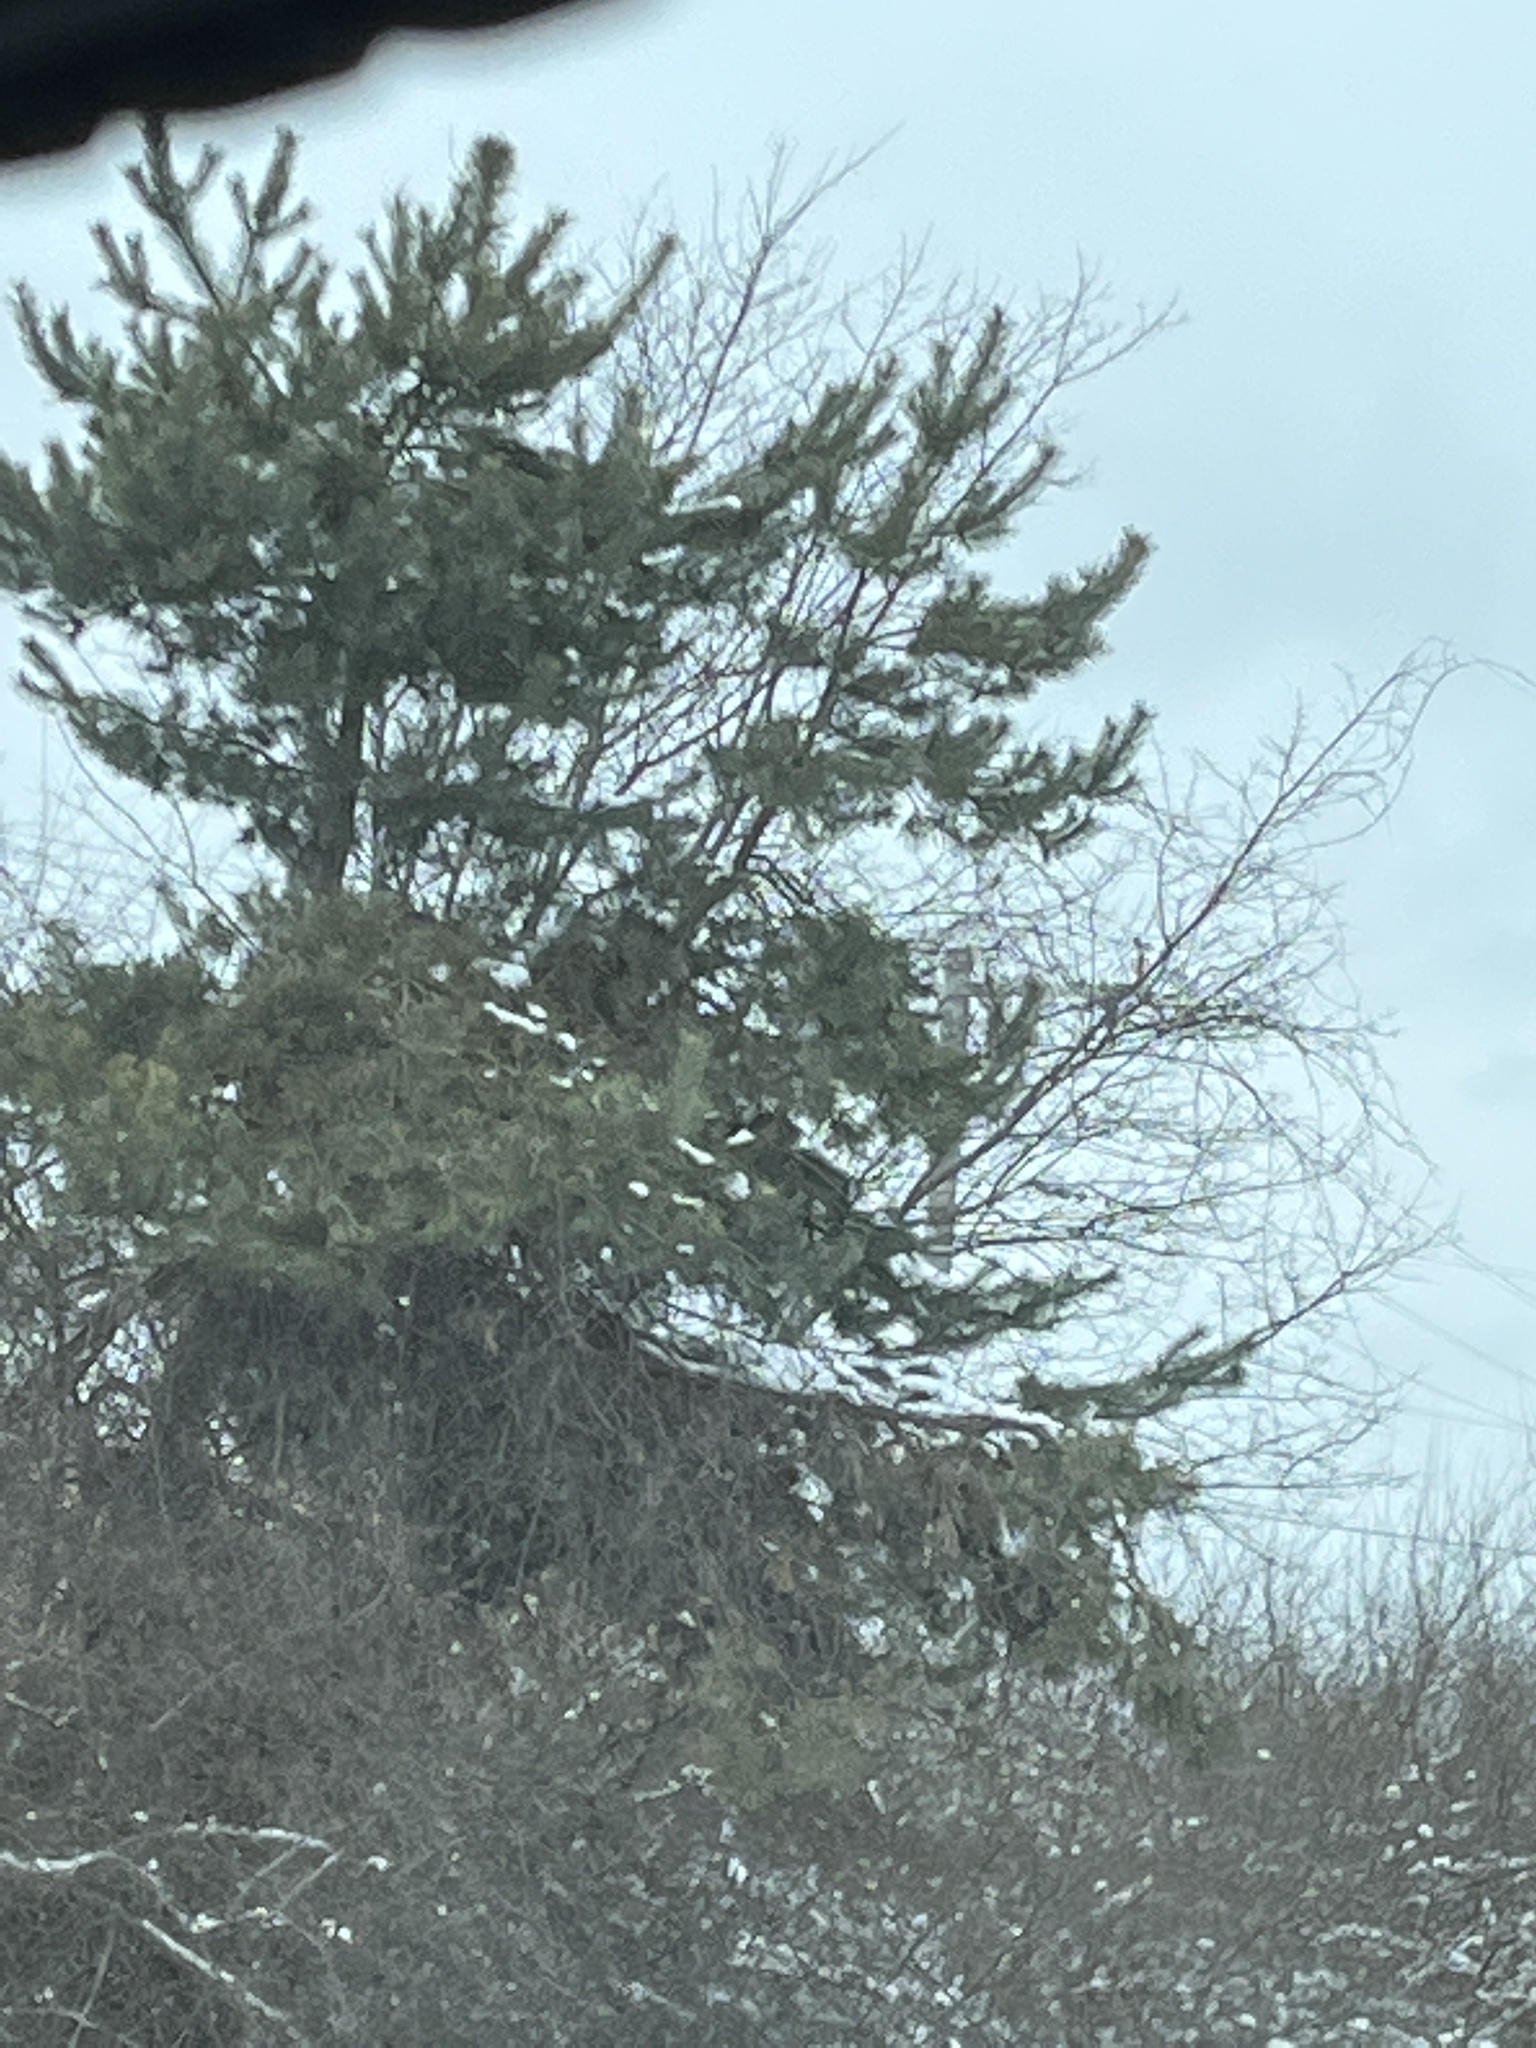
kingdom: Plantae
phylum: Tracheophyta
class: Pinopsida
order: Pinales
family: Pinaceae
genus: Pinus
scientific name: Pinus strobus
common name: Weymouth pine
